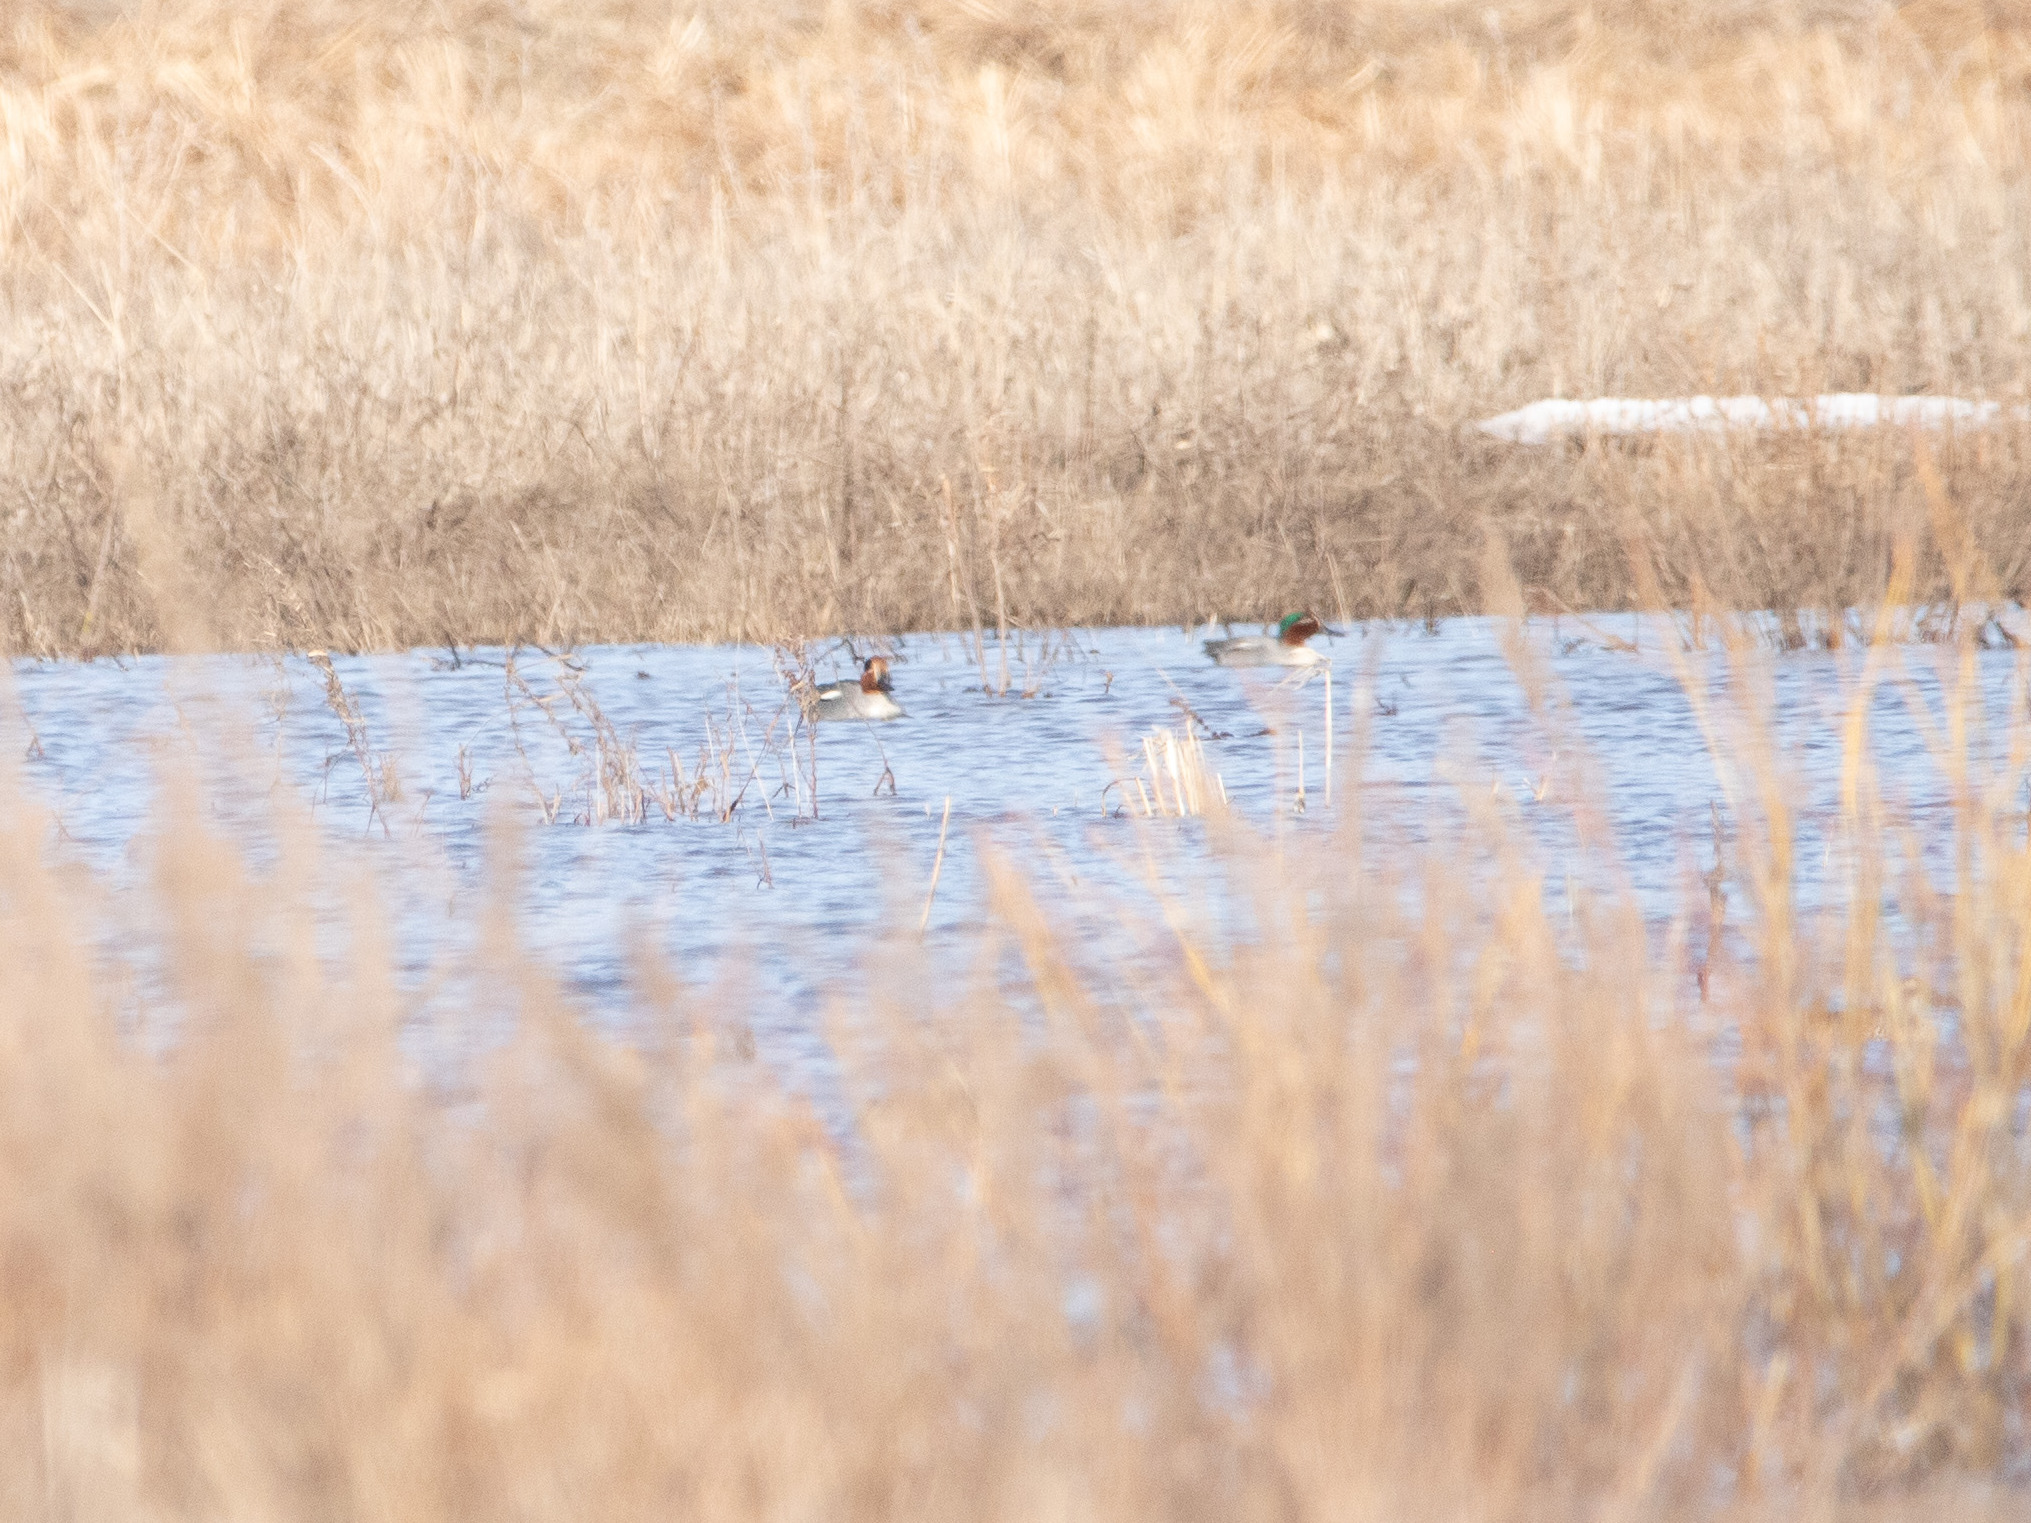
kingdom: Animalia
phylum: Chordata
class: Aves
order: Anseriformes
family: Anatidae
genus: Anas
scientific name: Anas crecca
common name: Eurasian teal
